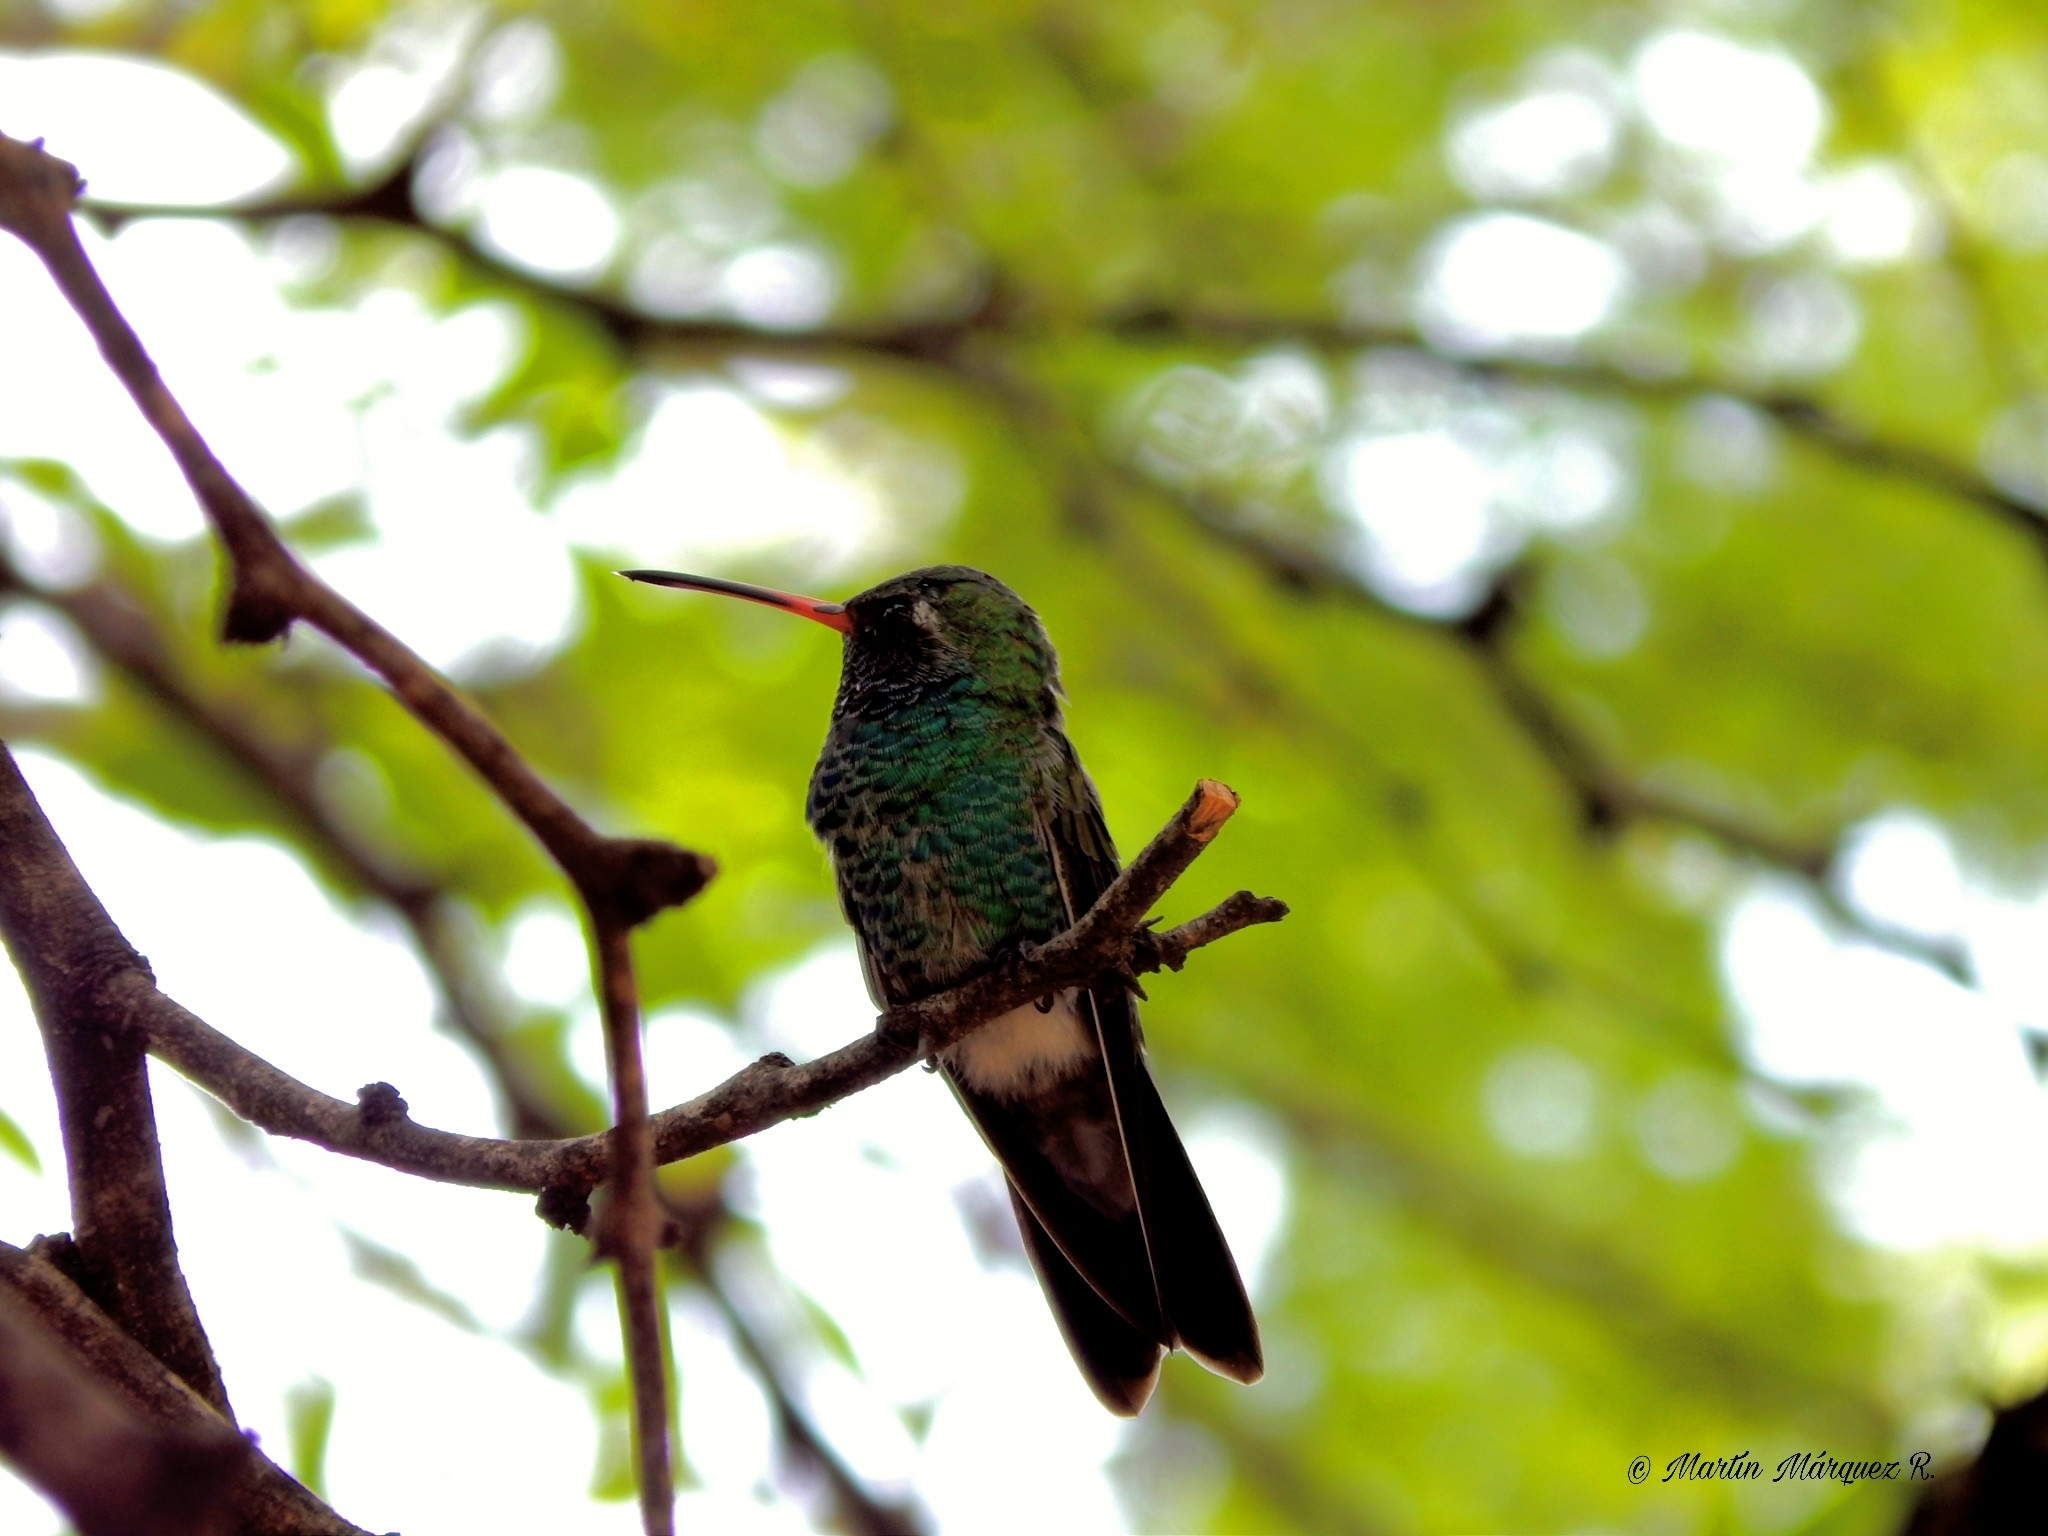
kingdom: Animalia
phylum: Chordata
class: Aves
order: Apodiformes
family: Trochilidae
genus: Cynanthus
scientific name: Cynanthus latirostris
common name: Broad-billed hummingbird
